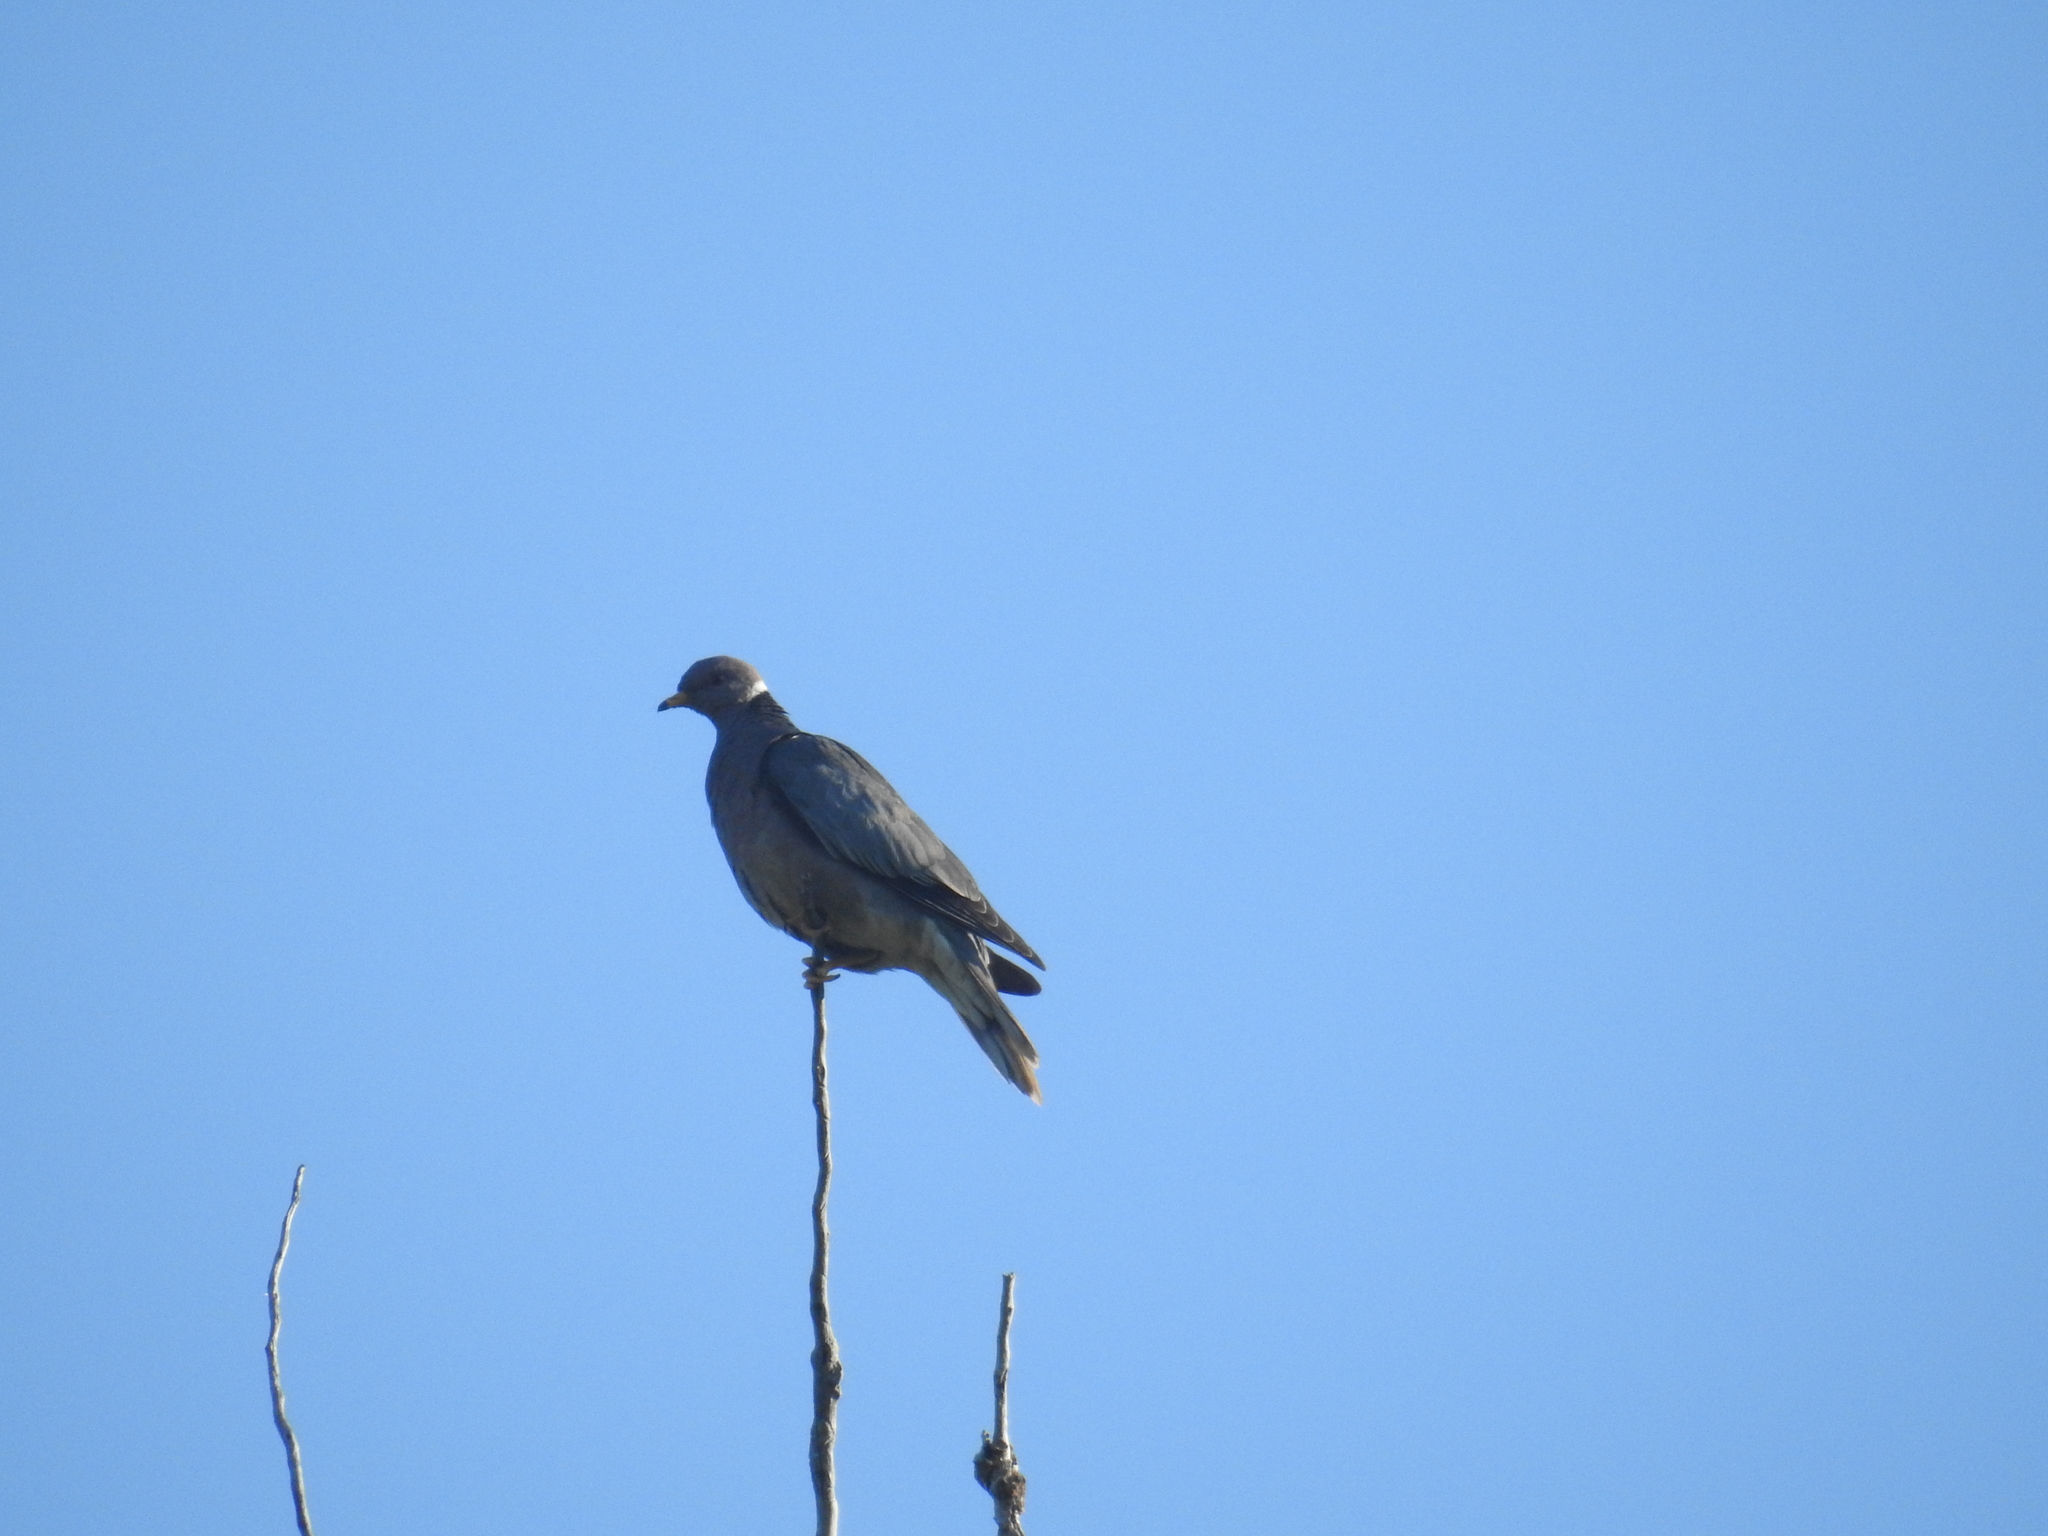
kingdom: Animalia
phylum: Chordata
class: Aves
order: Columbiformes
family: Columbidae
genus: Patagioenas
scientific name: Patagioenas fasciata
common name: Band-tailed pigeon
